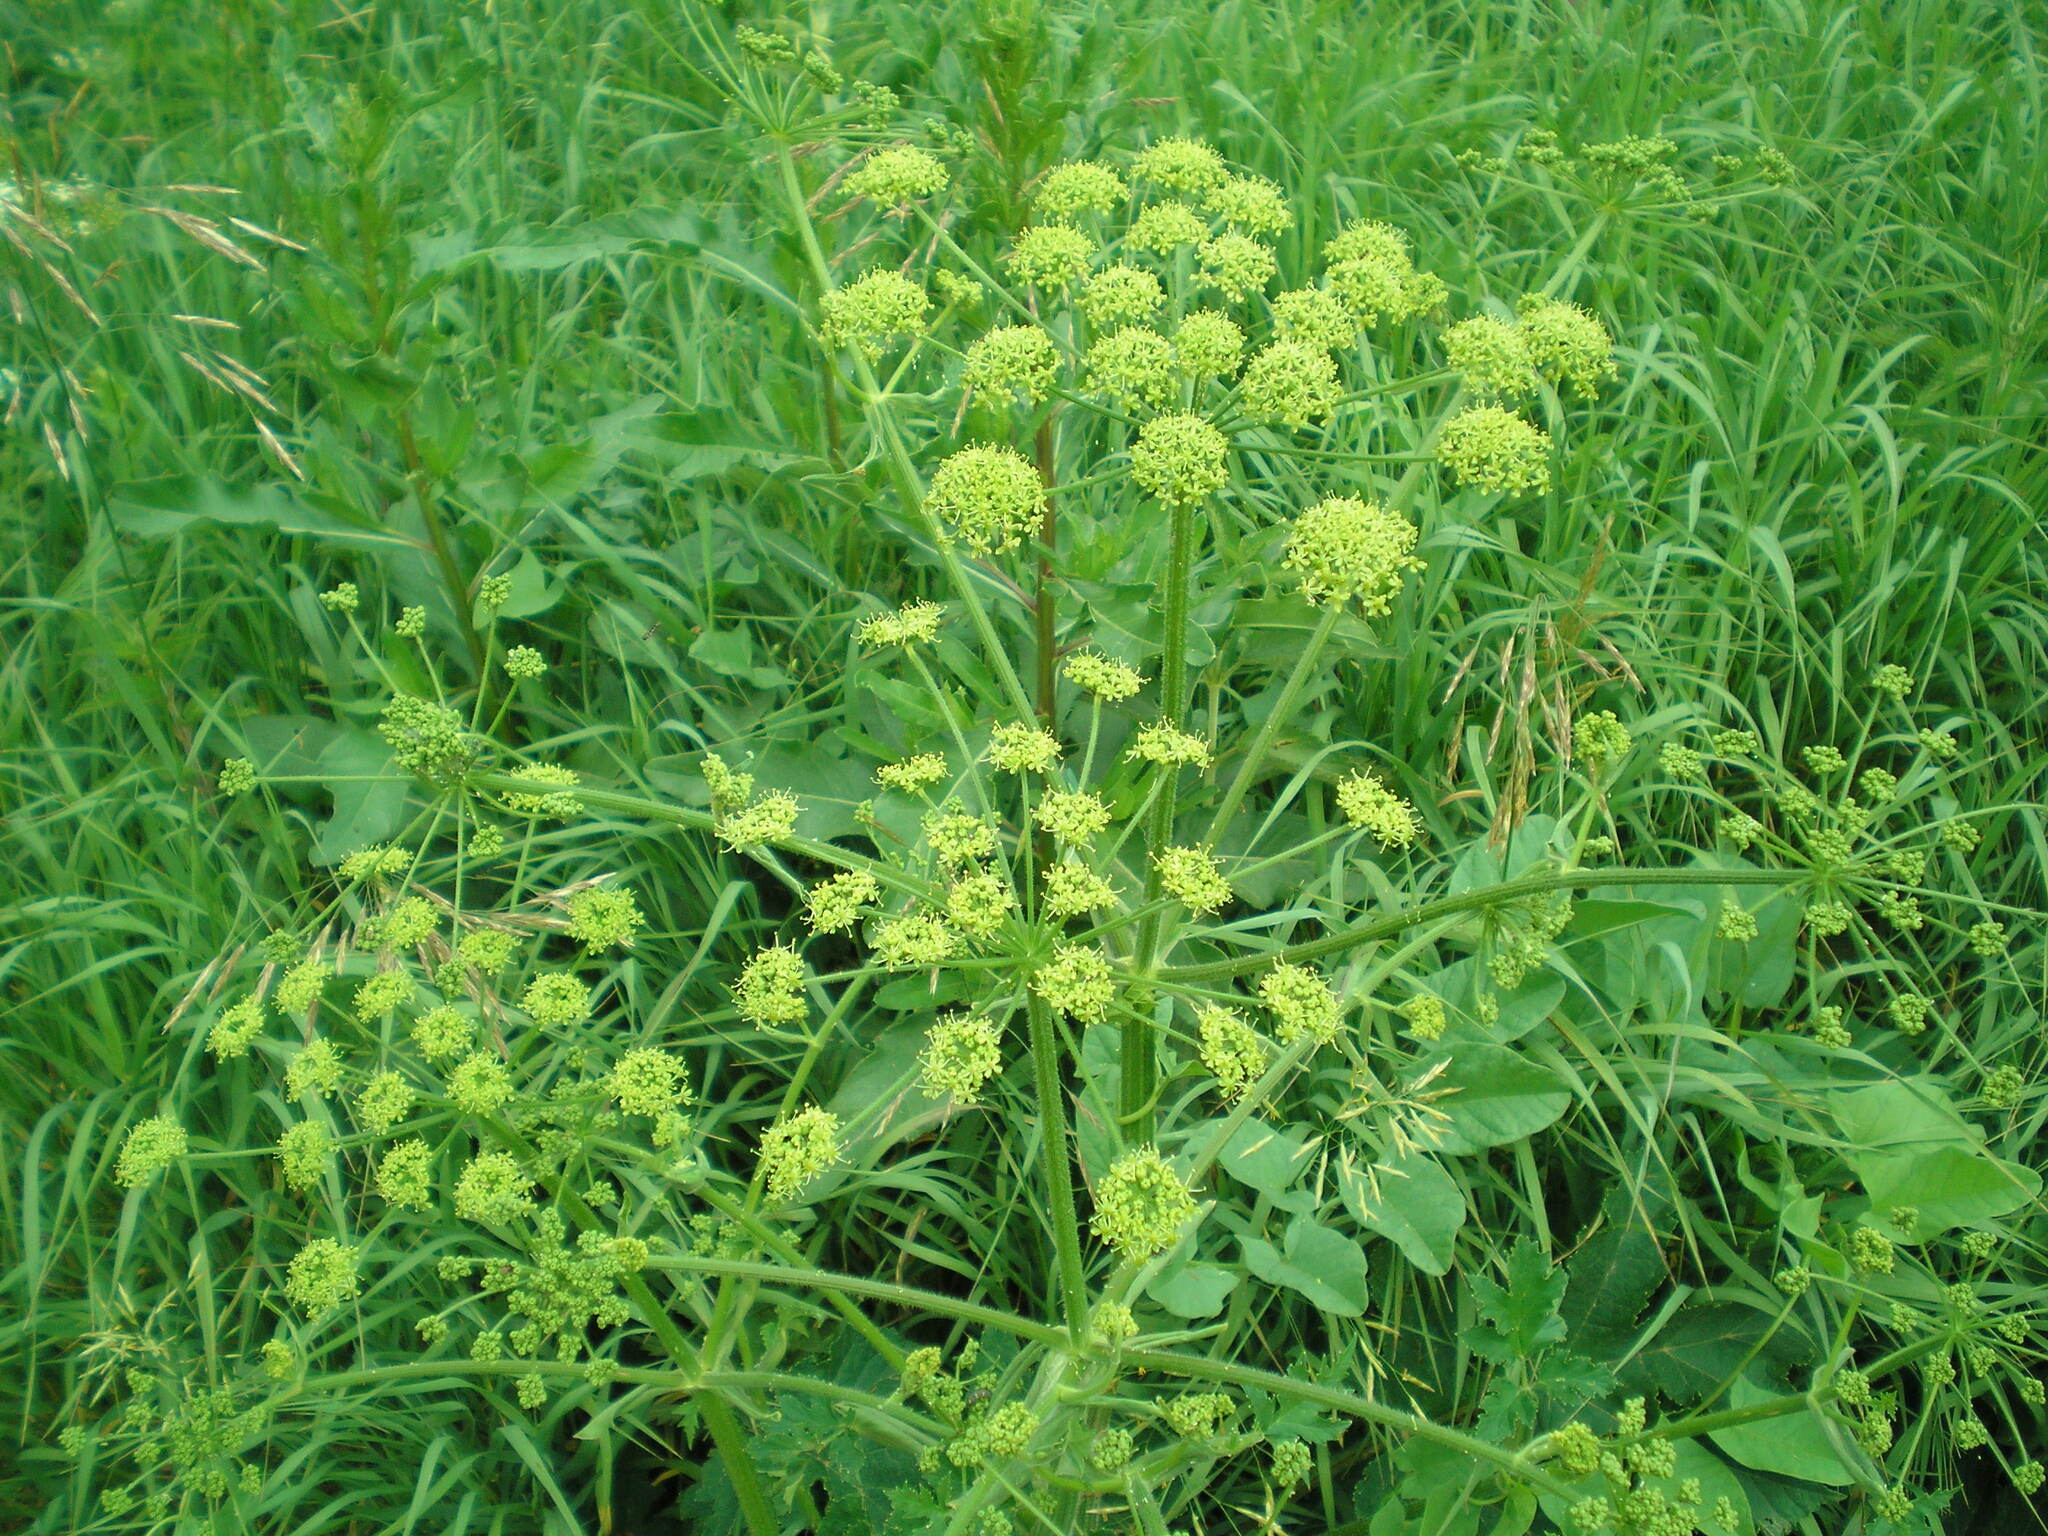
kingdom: Plantae
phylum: Tracheophyta
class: Magnoliopsida
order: Apiales
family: Apiaceae
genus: Heracleum
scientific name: Heracleum sphondylium
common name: Hogweed
